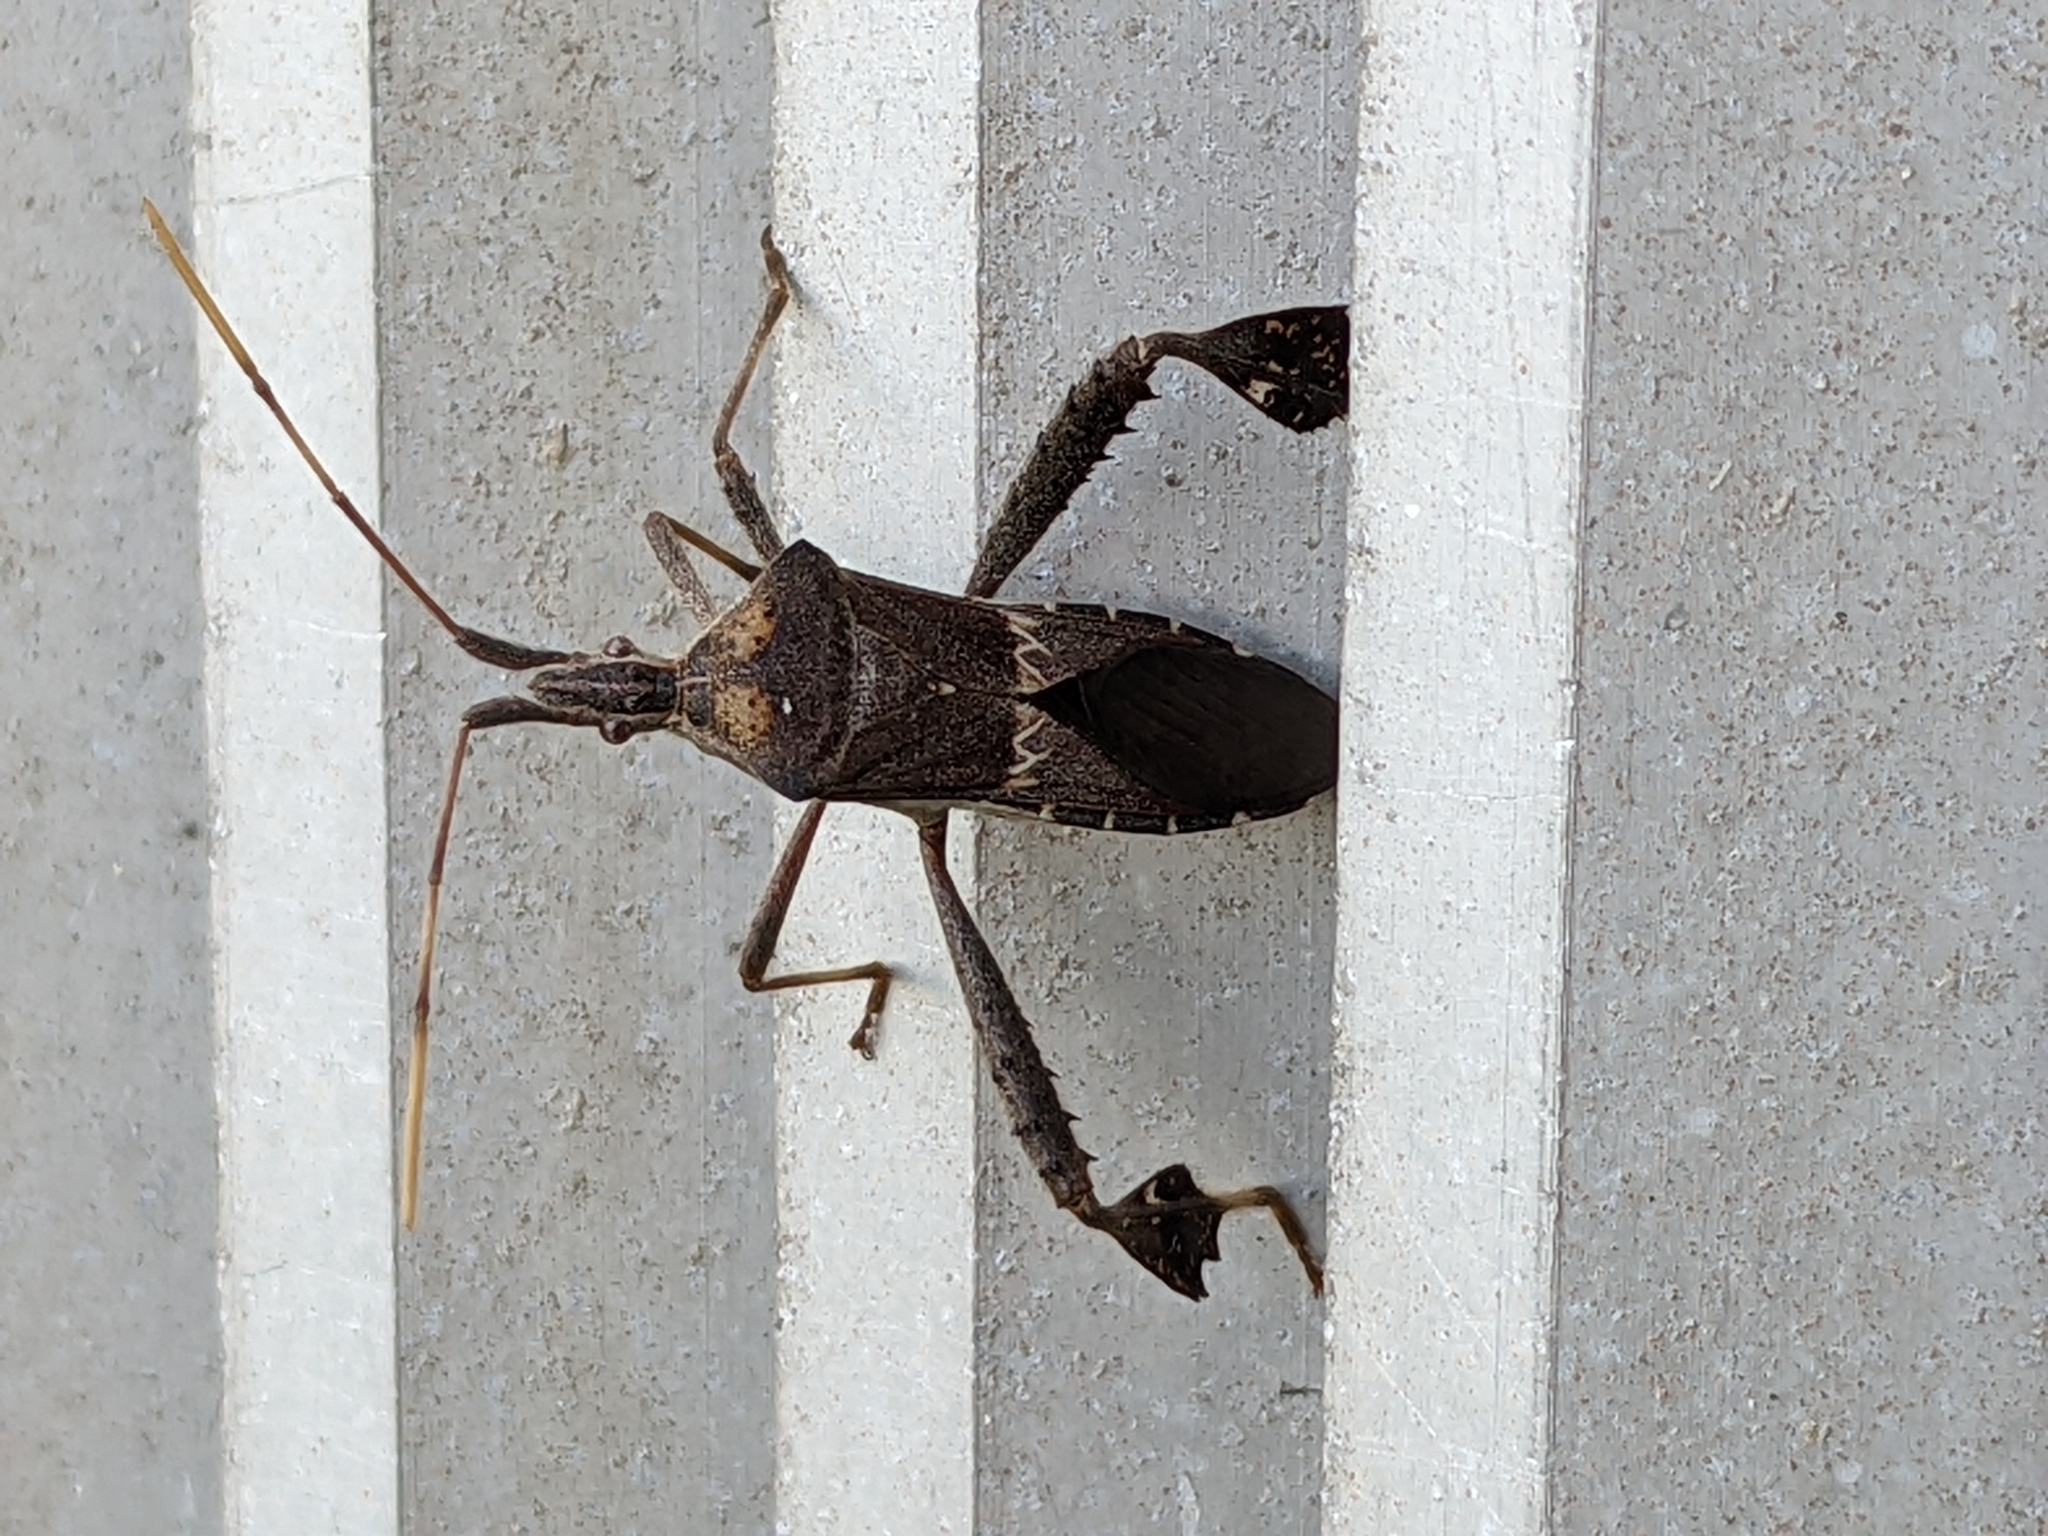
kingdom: Animalia
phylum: Arthropoda
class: Insecta
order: Hemiptera
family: Coreidae
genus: Leptoglossus
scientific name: Leptoglossus zonatus
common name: Large-legged bug
